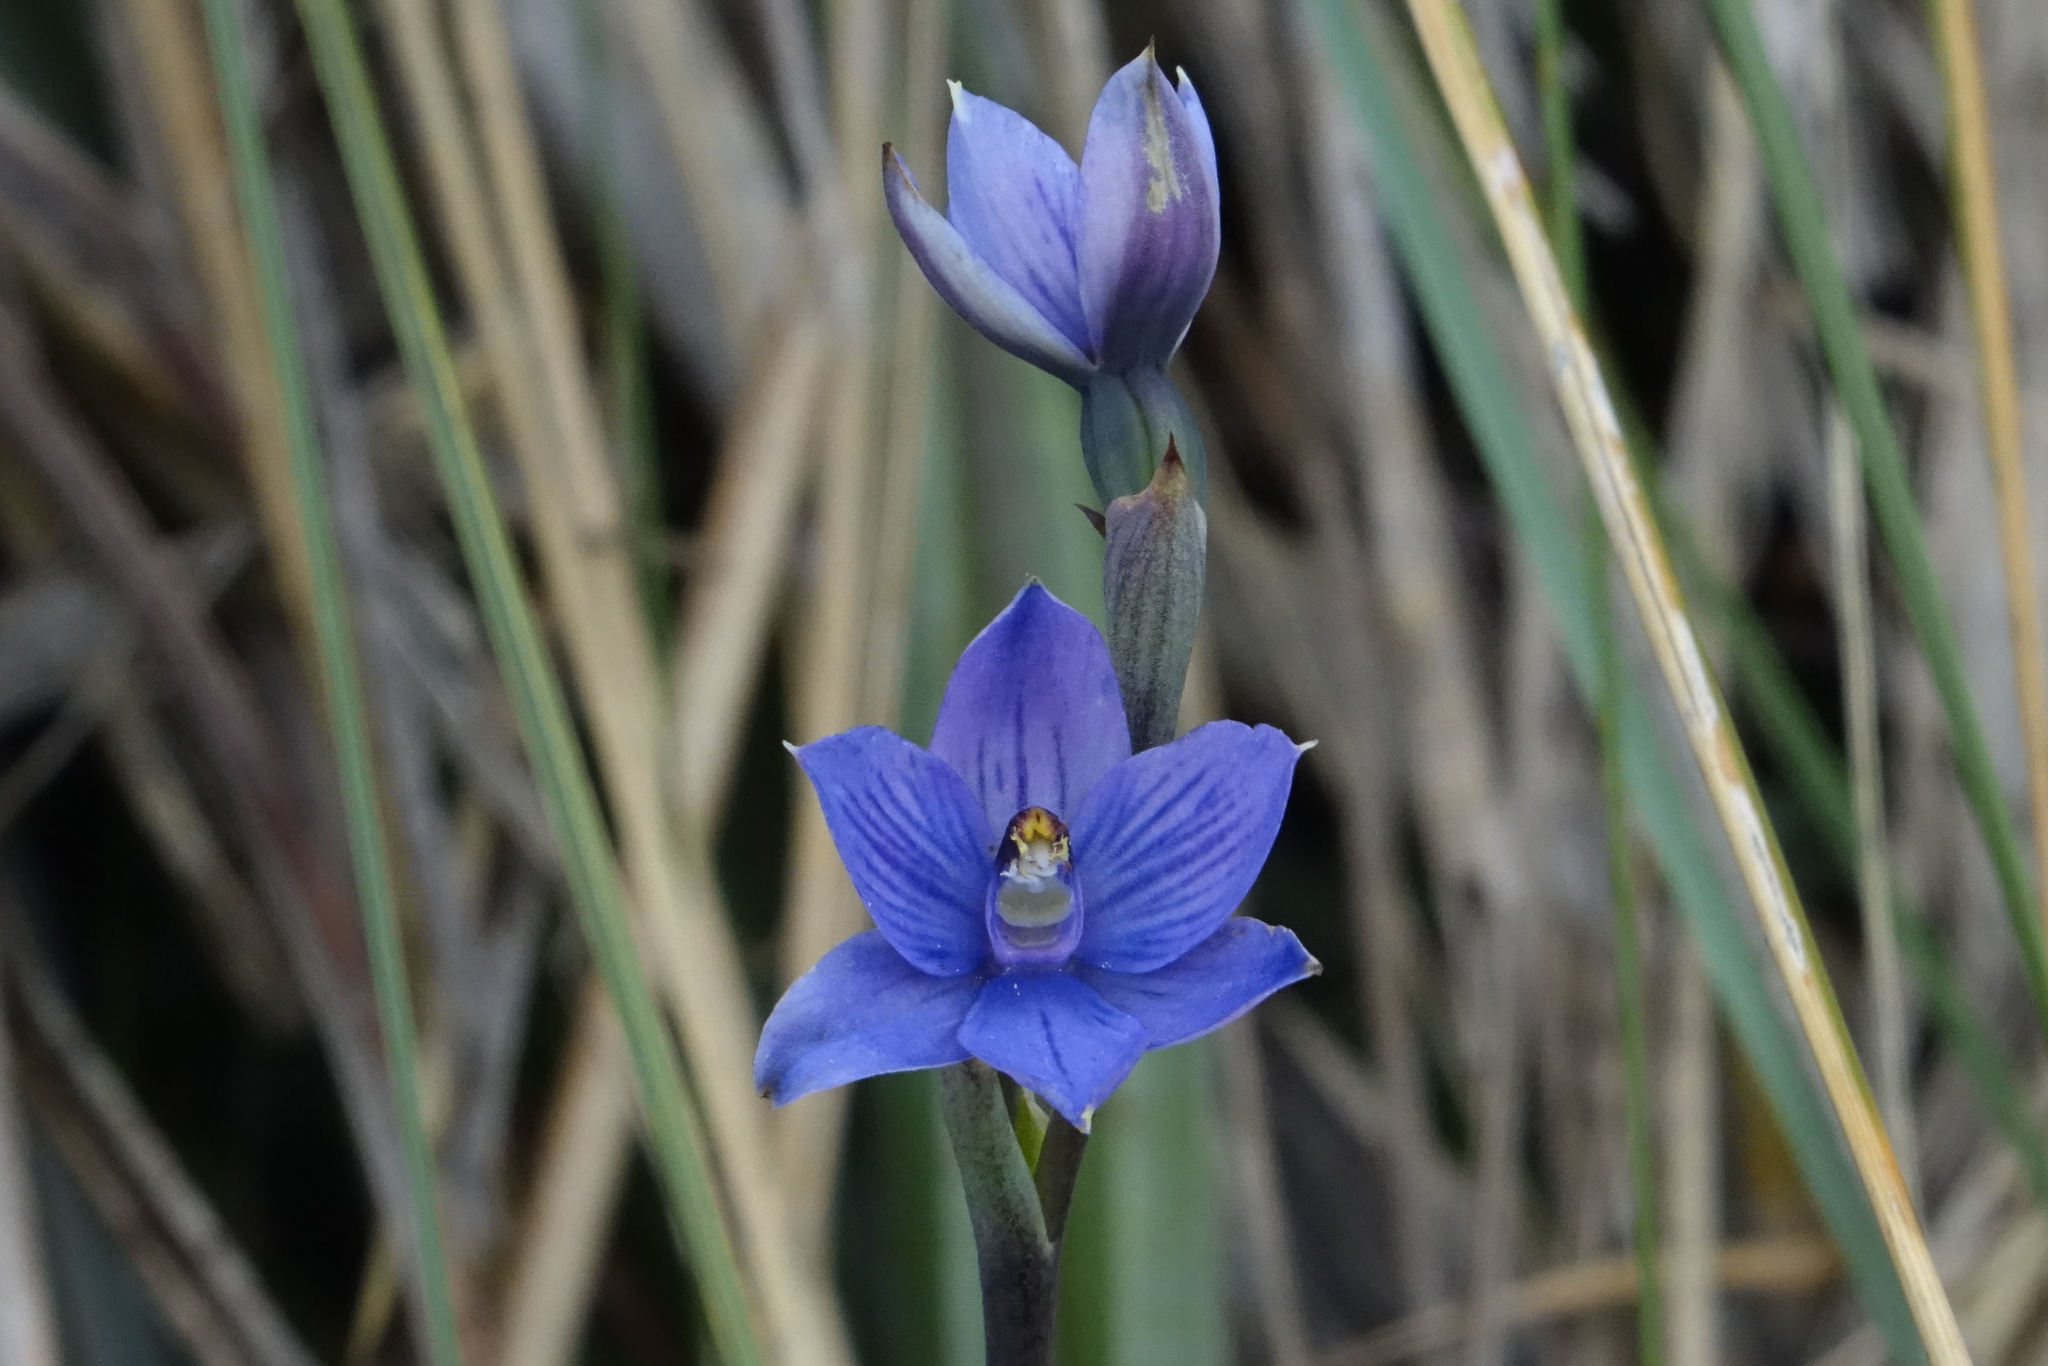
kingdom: Plantae
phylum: Tracheophyta
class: Liliopsida
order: Asparagales
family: Orchidaceae
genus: Thelymitra
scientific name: Thelymitra pulchella
